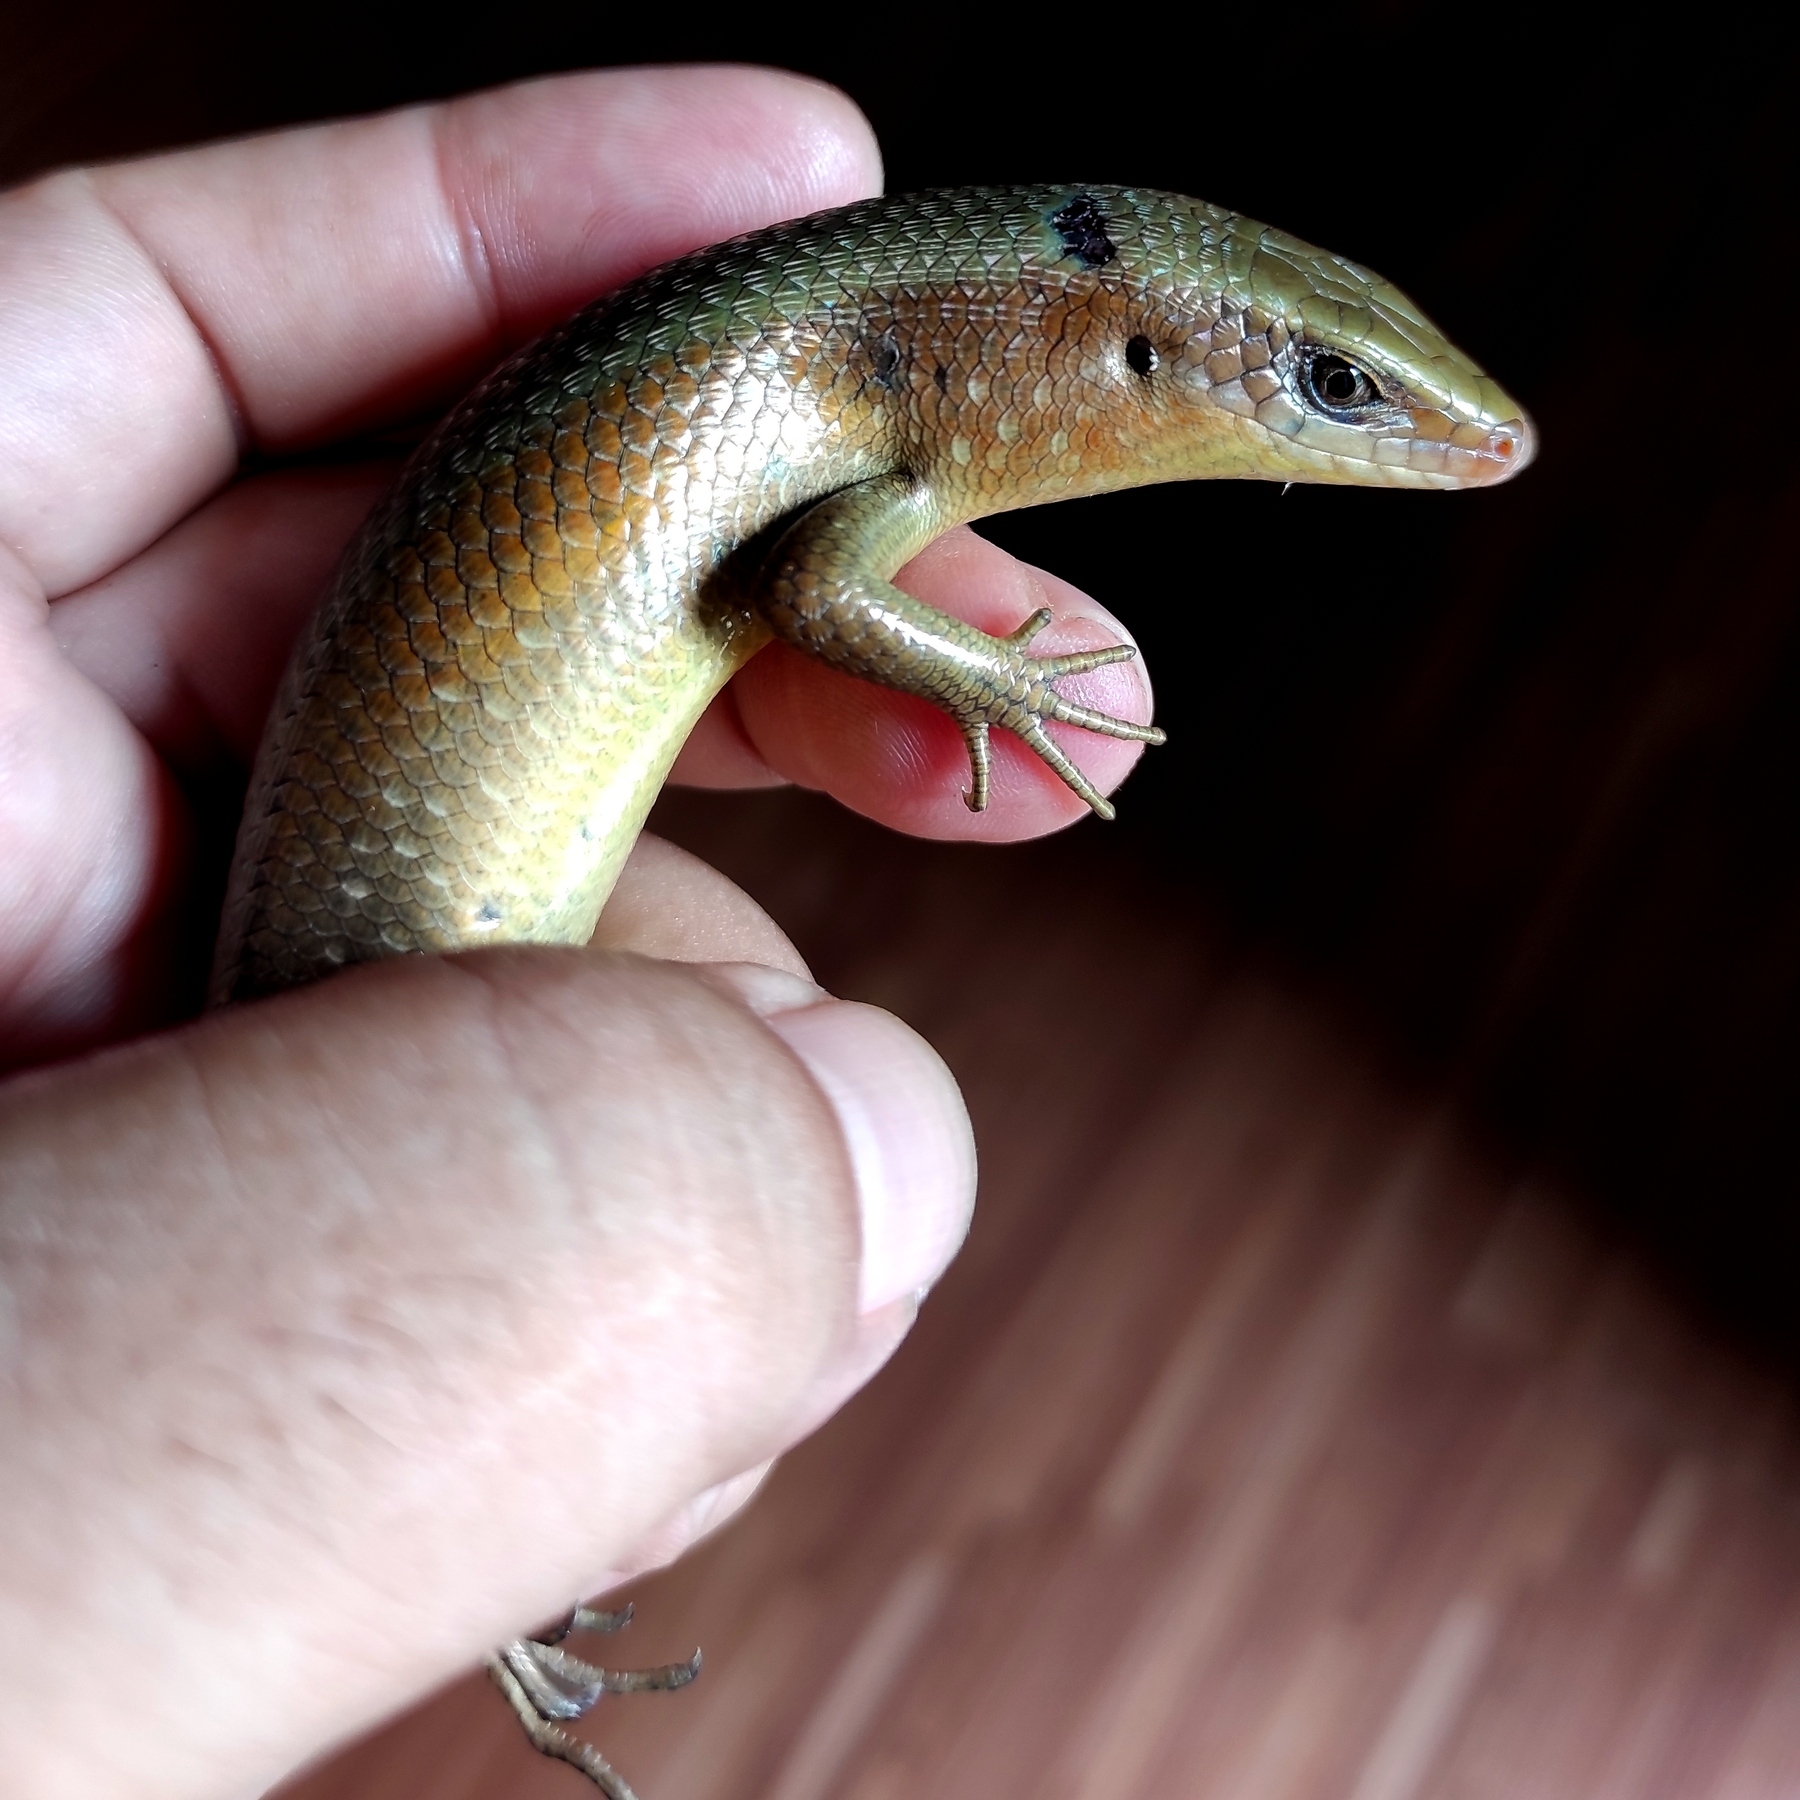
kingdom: Animalia
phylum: Chordata
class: Squamata
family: Scincidae
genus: Eutropis
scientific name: Eutropis multifasciata
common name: Common mabuya
